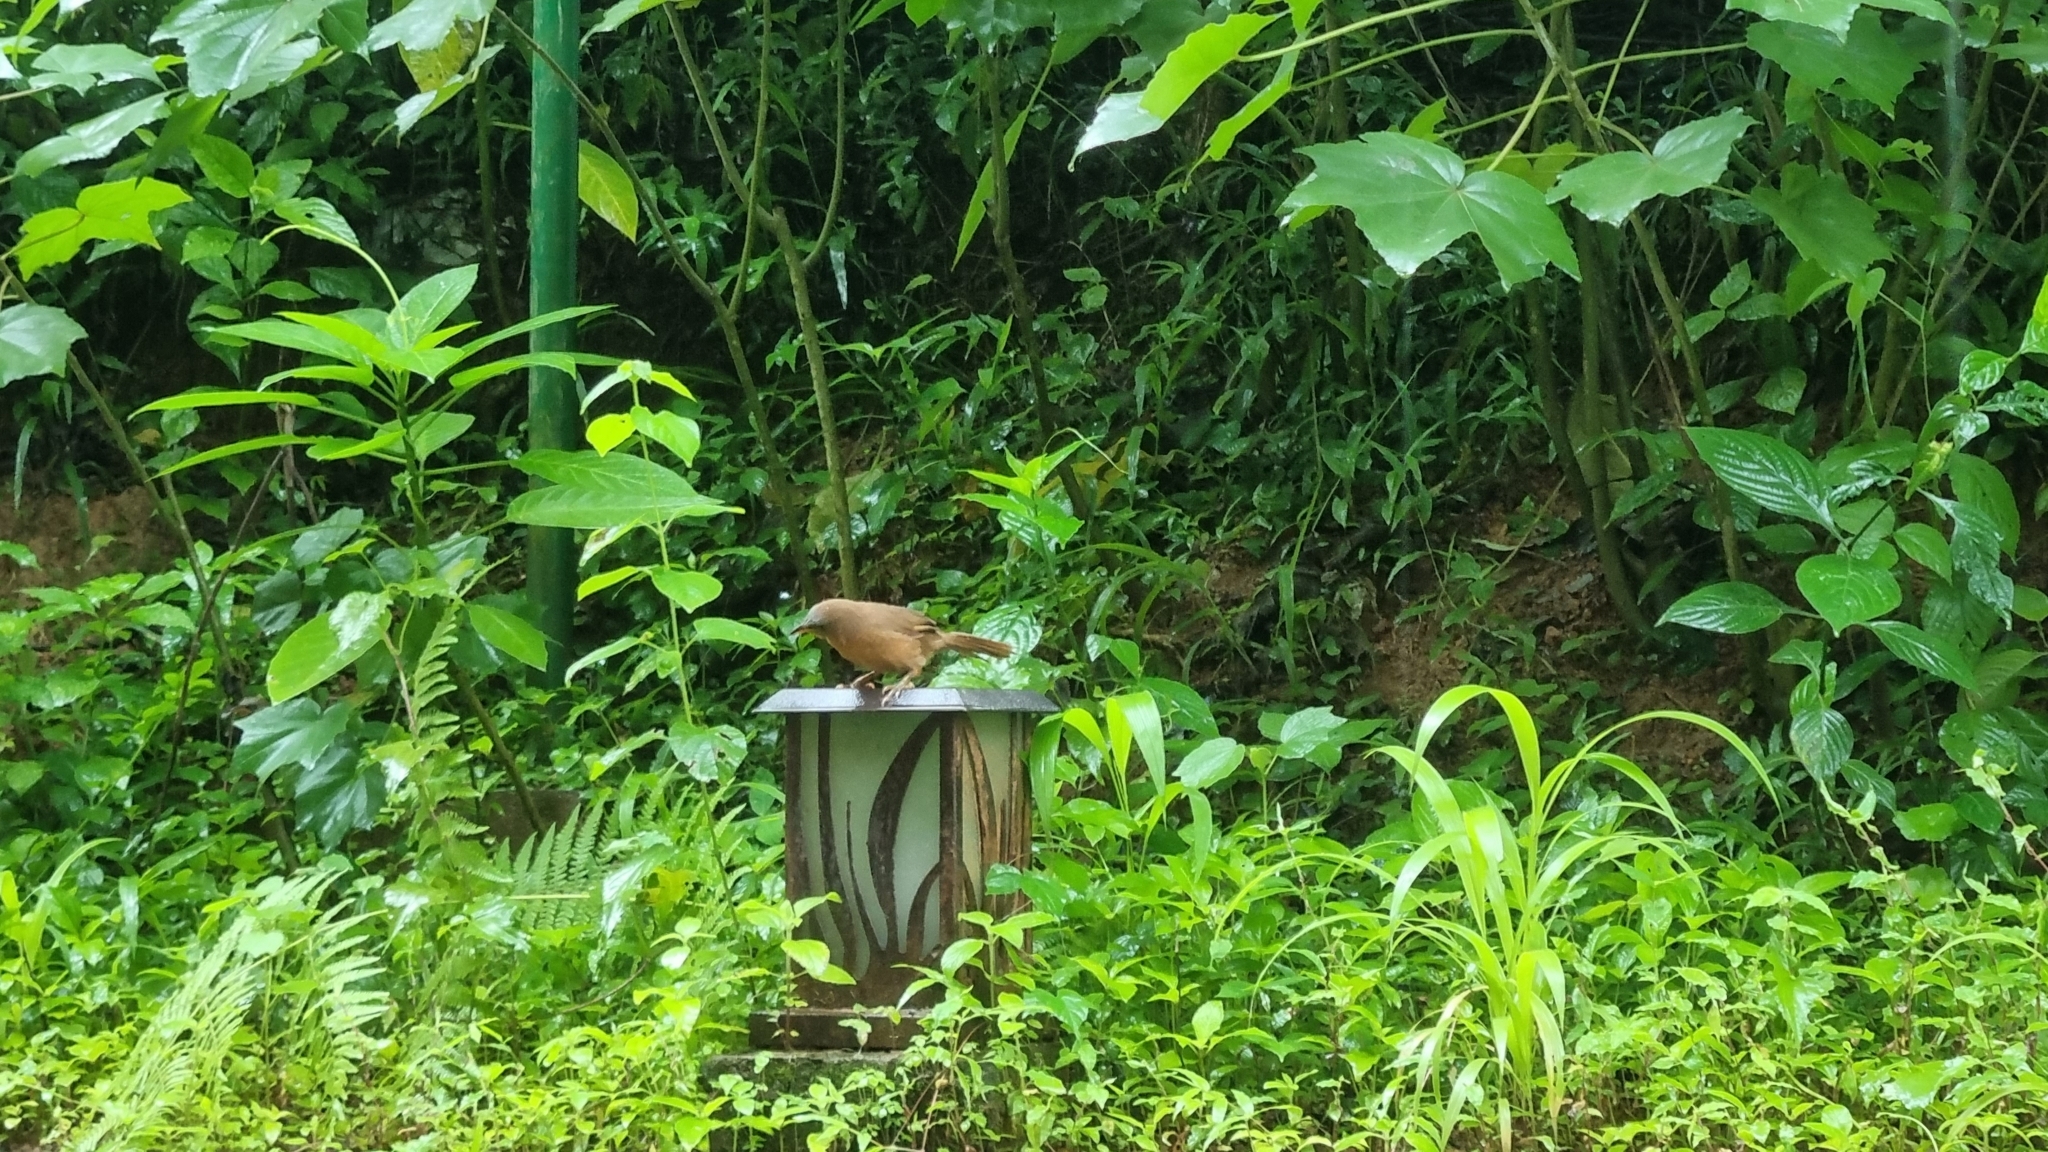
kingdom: Animalia
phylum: Chordata
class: Aves
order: Passeriformes
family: Leiothrichidae
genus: Turdoides
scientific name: Turdoides subrufa
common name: Rufous babbler
